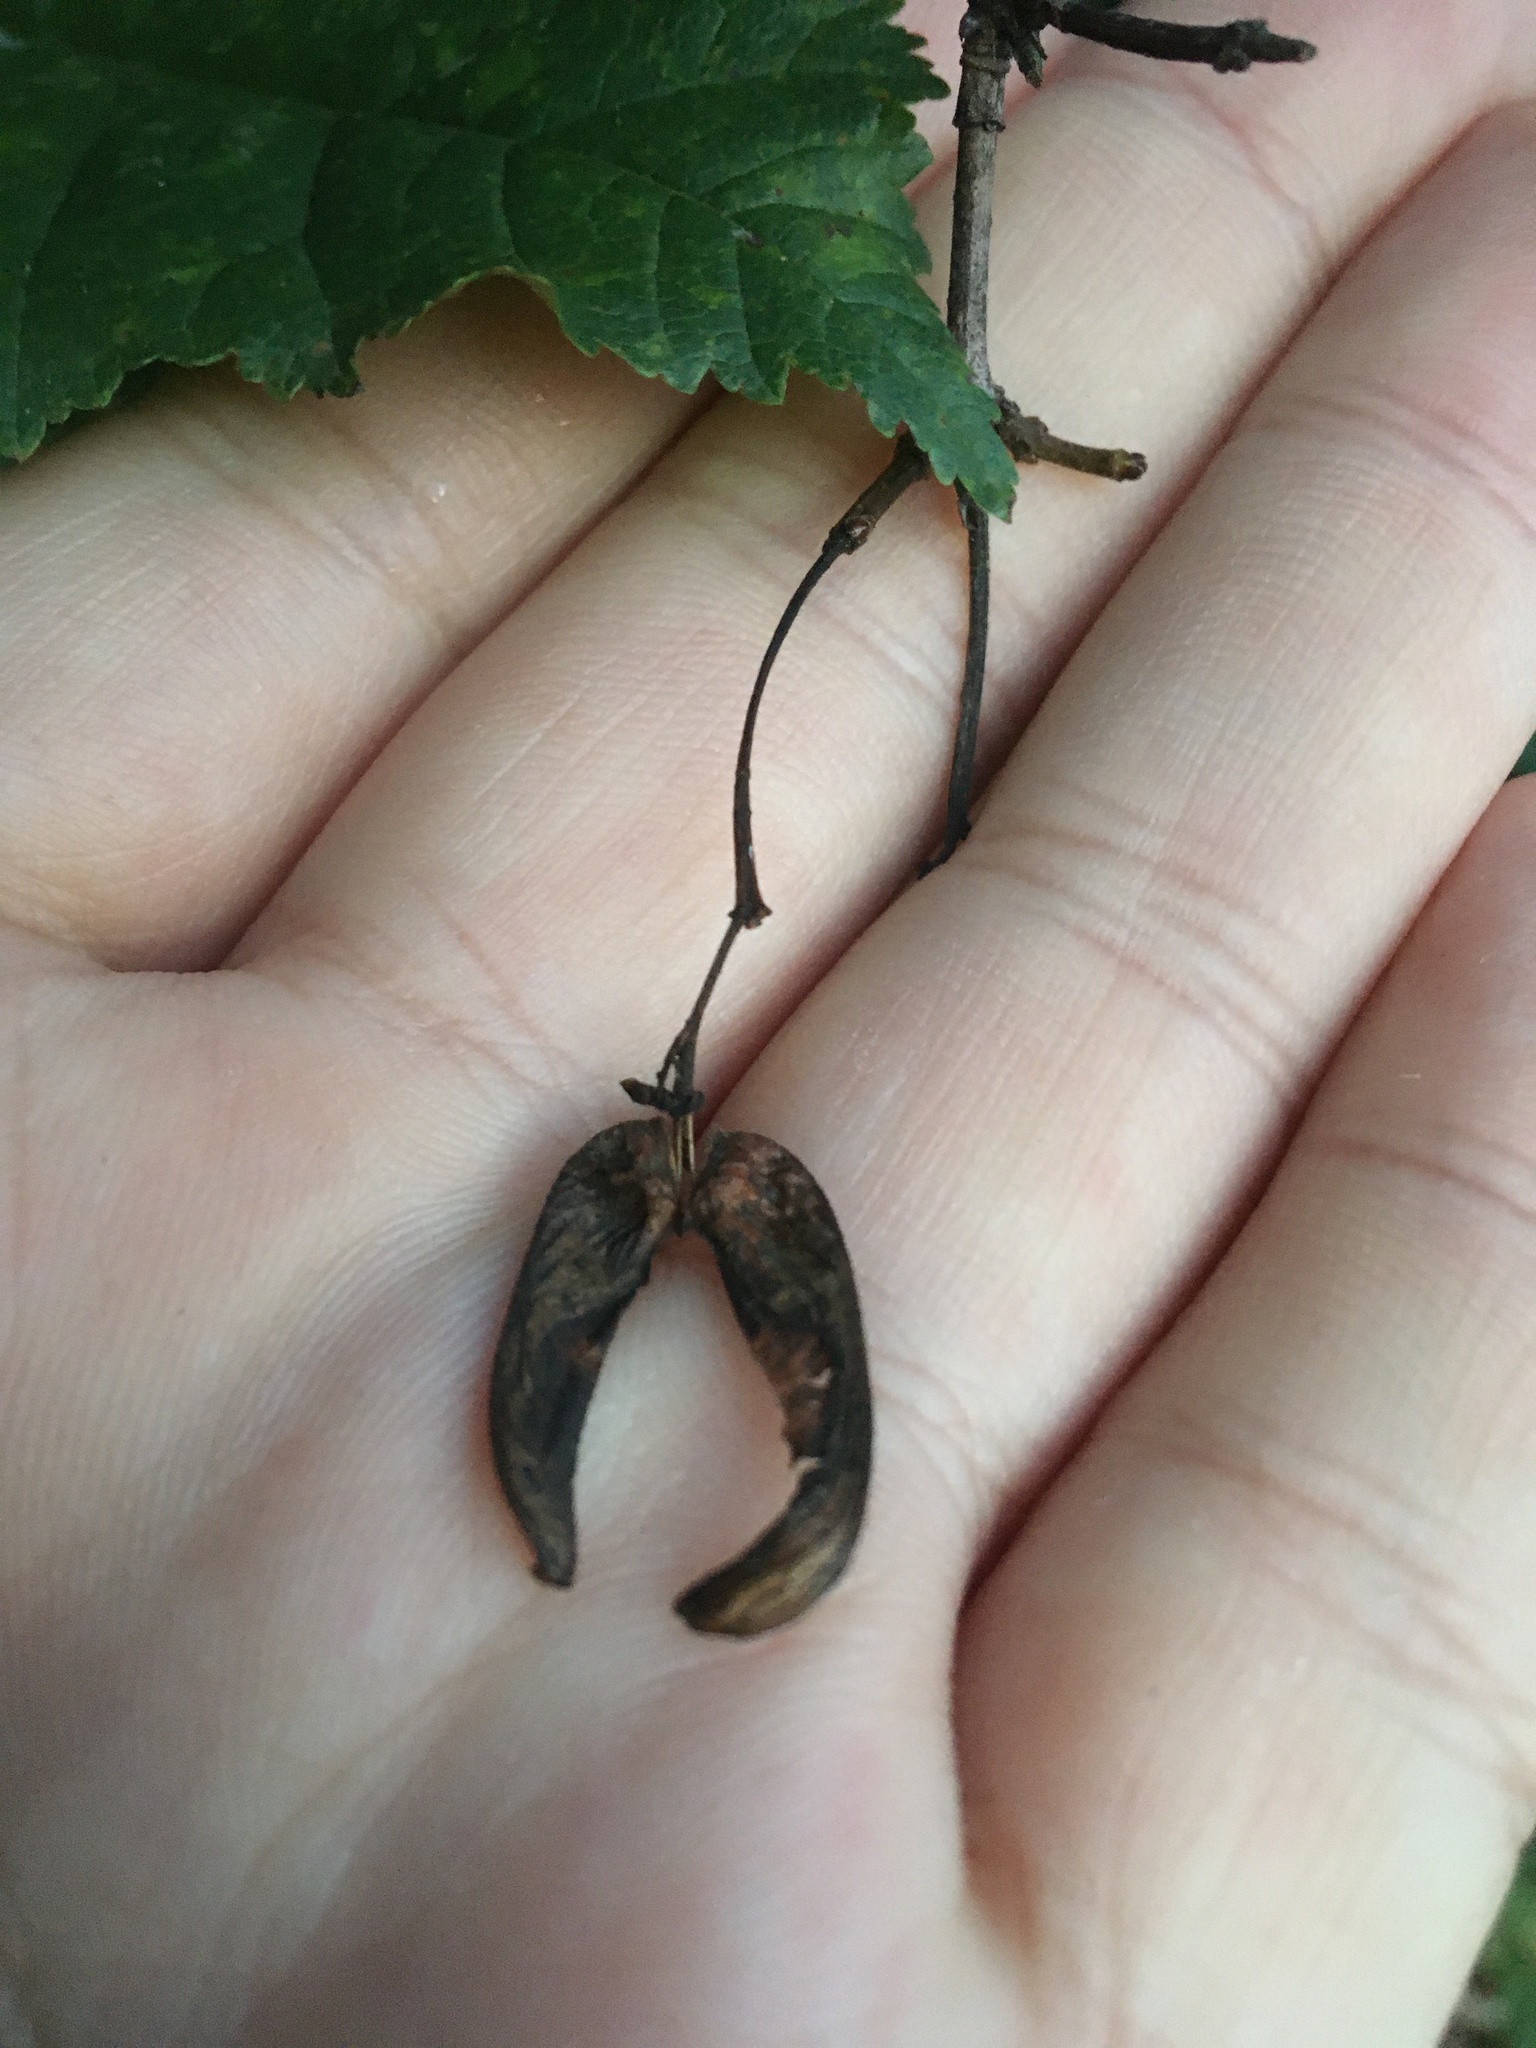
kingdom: Plantae
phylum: Tracheophyta
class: Magnoliopsida
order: Sapindales
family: Sapindaceae
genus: Acer
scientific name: Acer tataricum
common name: Tartar maple
